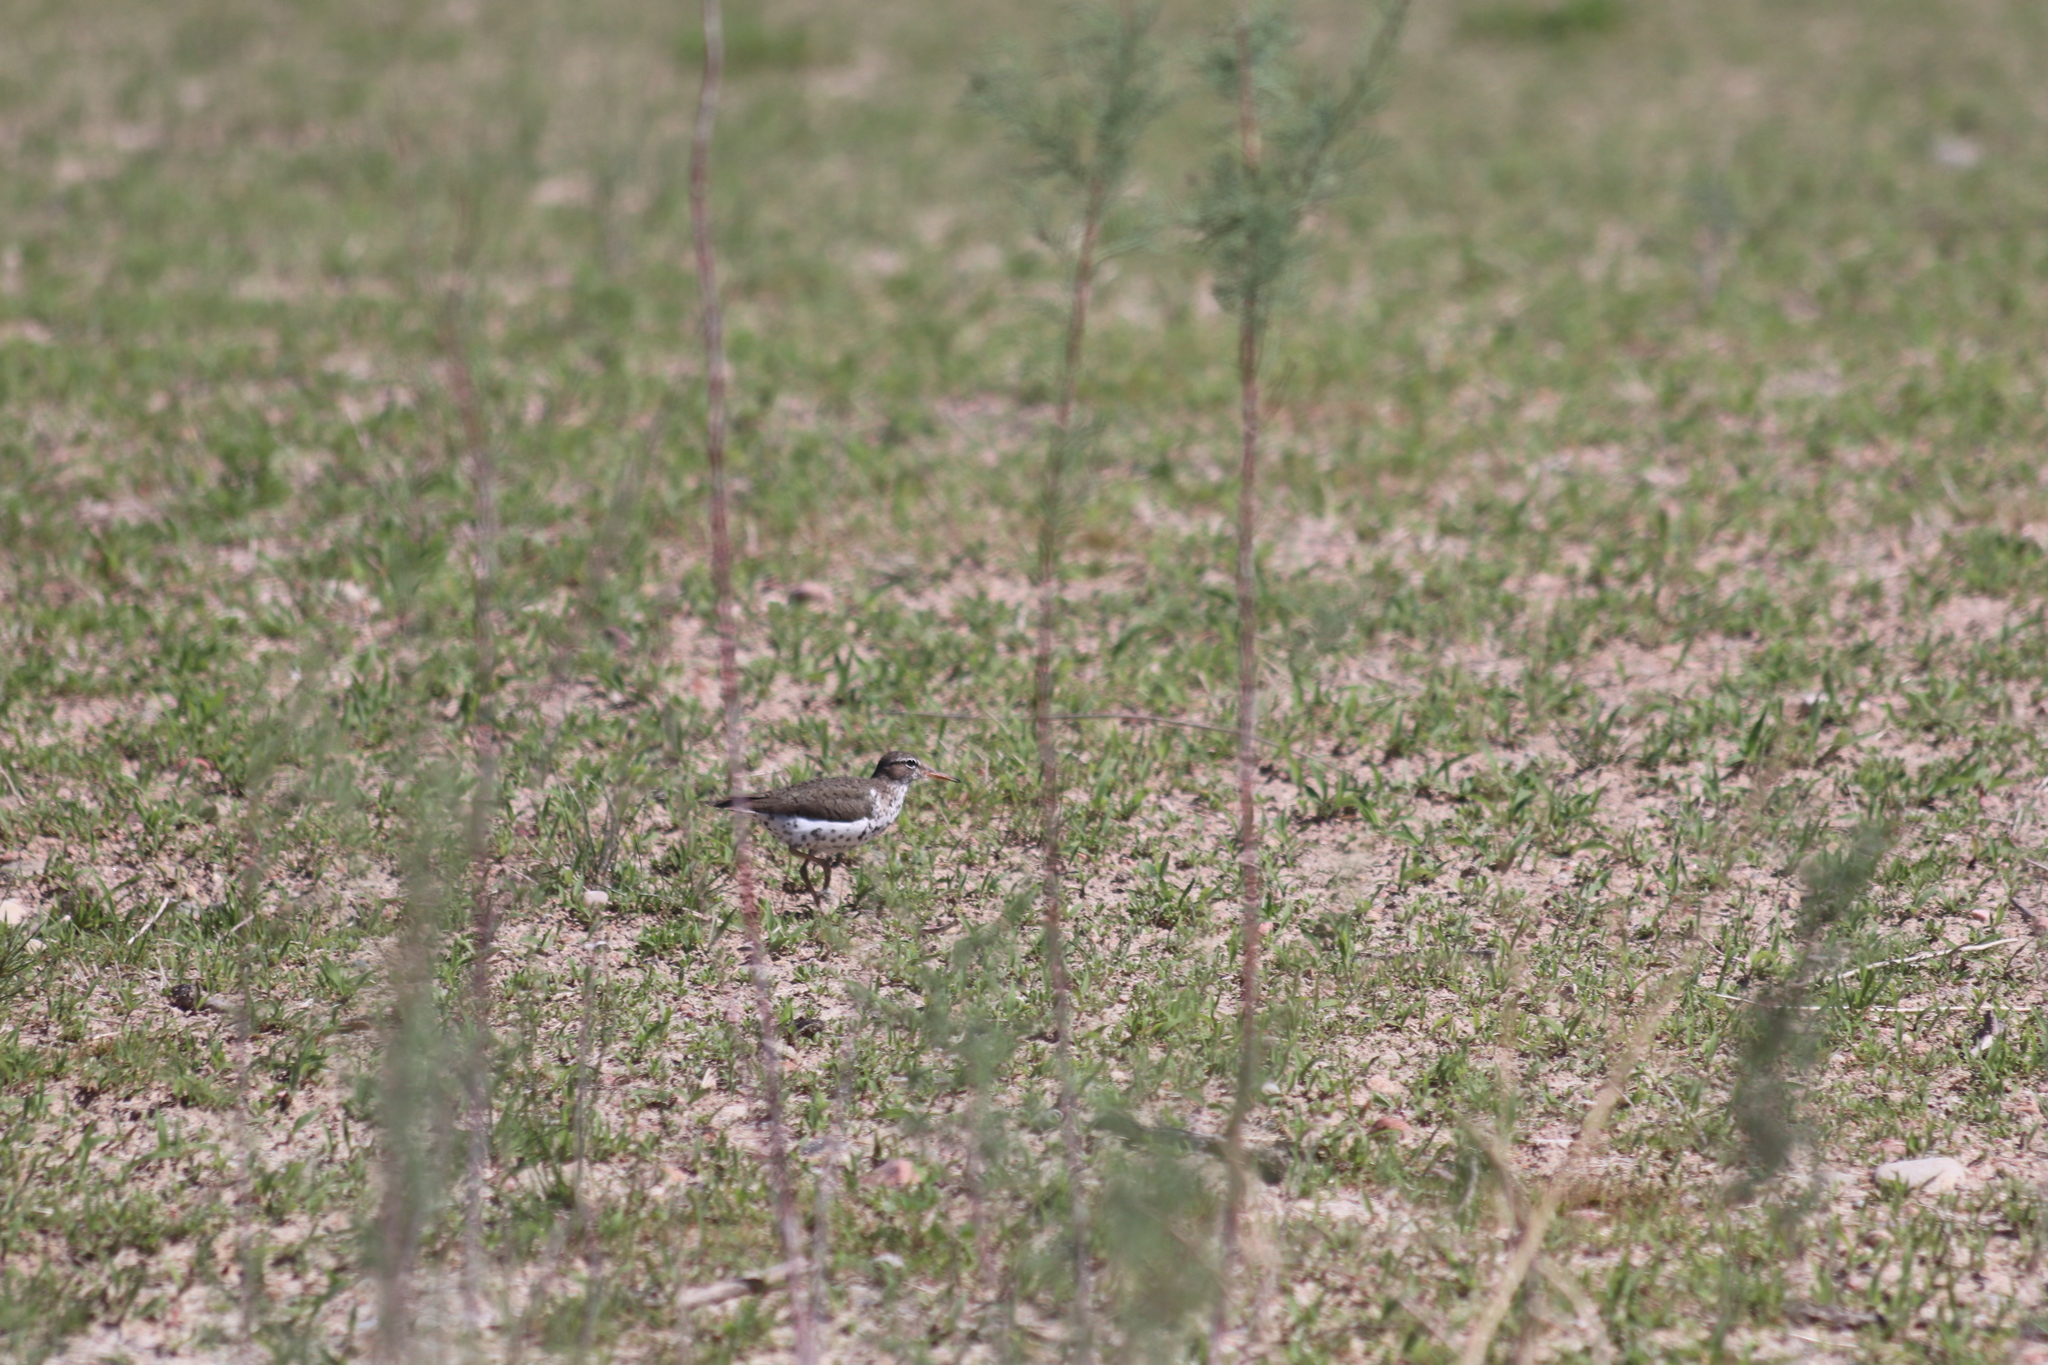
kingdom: Animalia
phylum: Chordata
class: Aves
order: Charadriiformes
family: Scolopacidae
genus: Actitis
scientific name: Actitis macularius
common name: Spotted sandpiper
